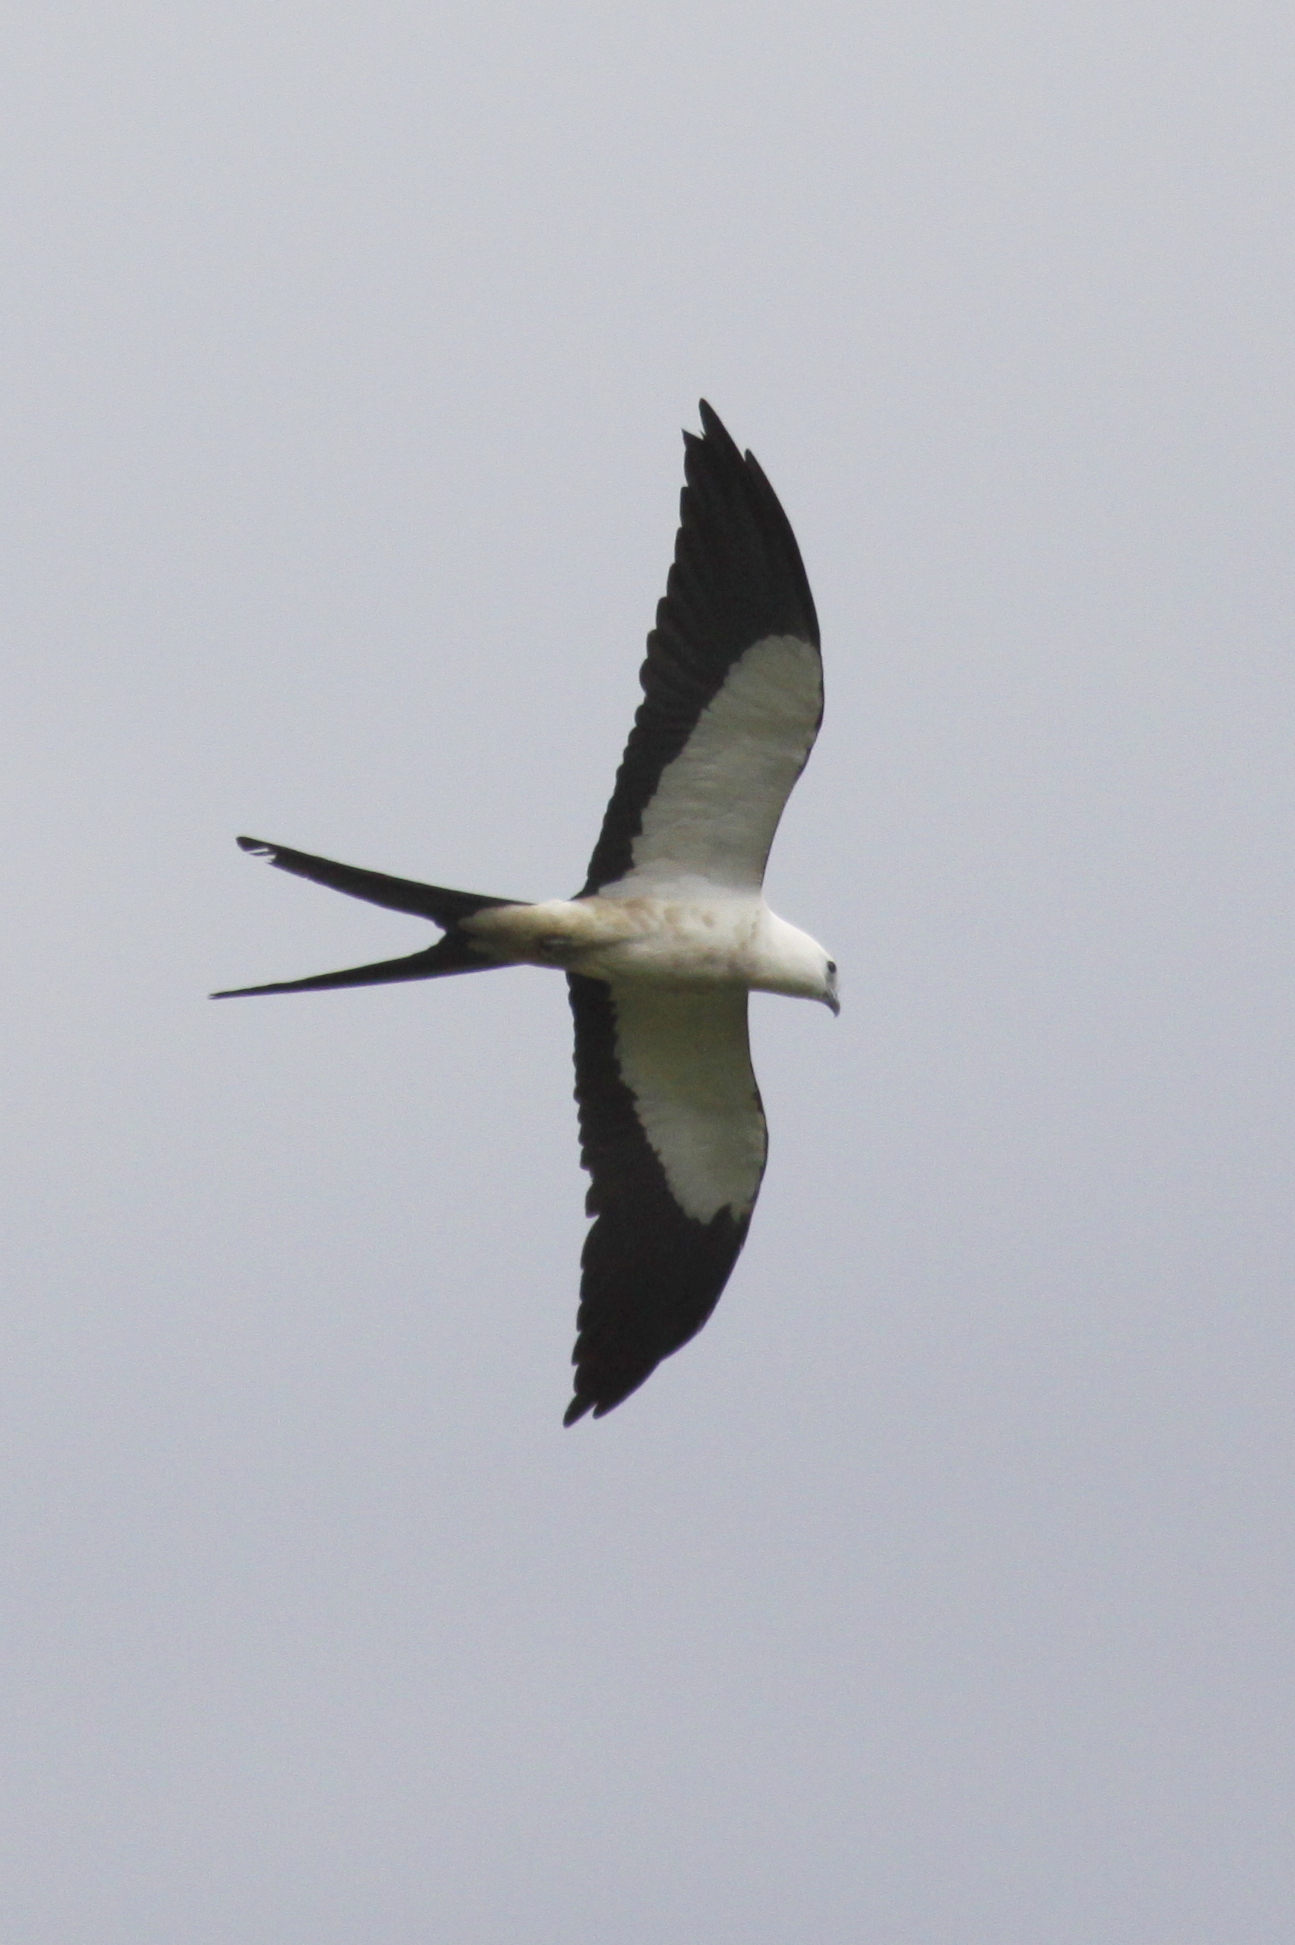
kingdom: Animalia
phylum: Chordata
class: Aves
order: Accipitriformes
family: Accipitridae
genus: Elanoides
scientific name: Elanoides forficatus
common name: Swallow-tailed kite
